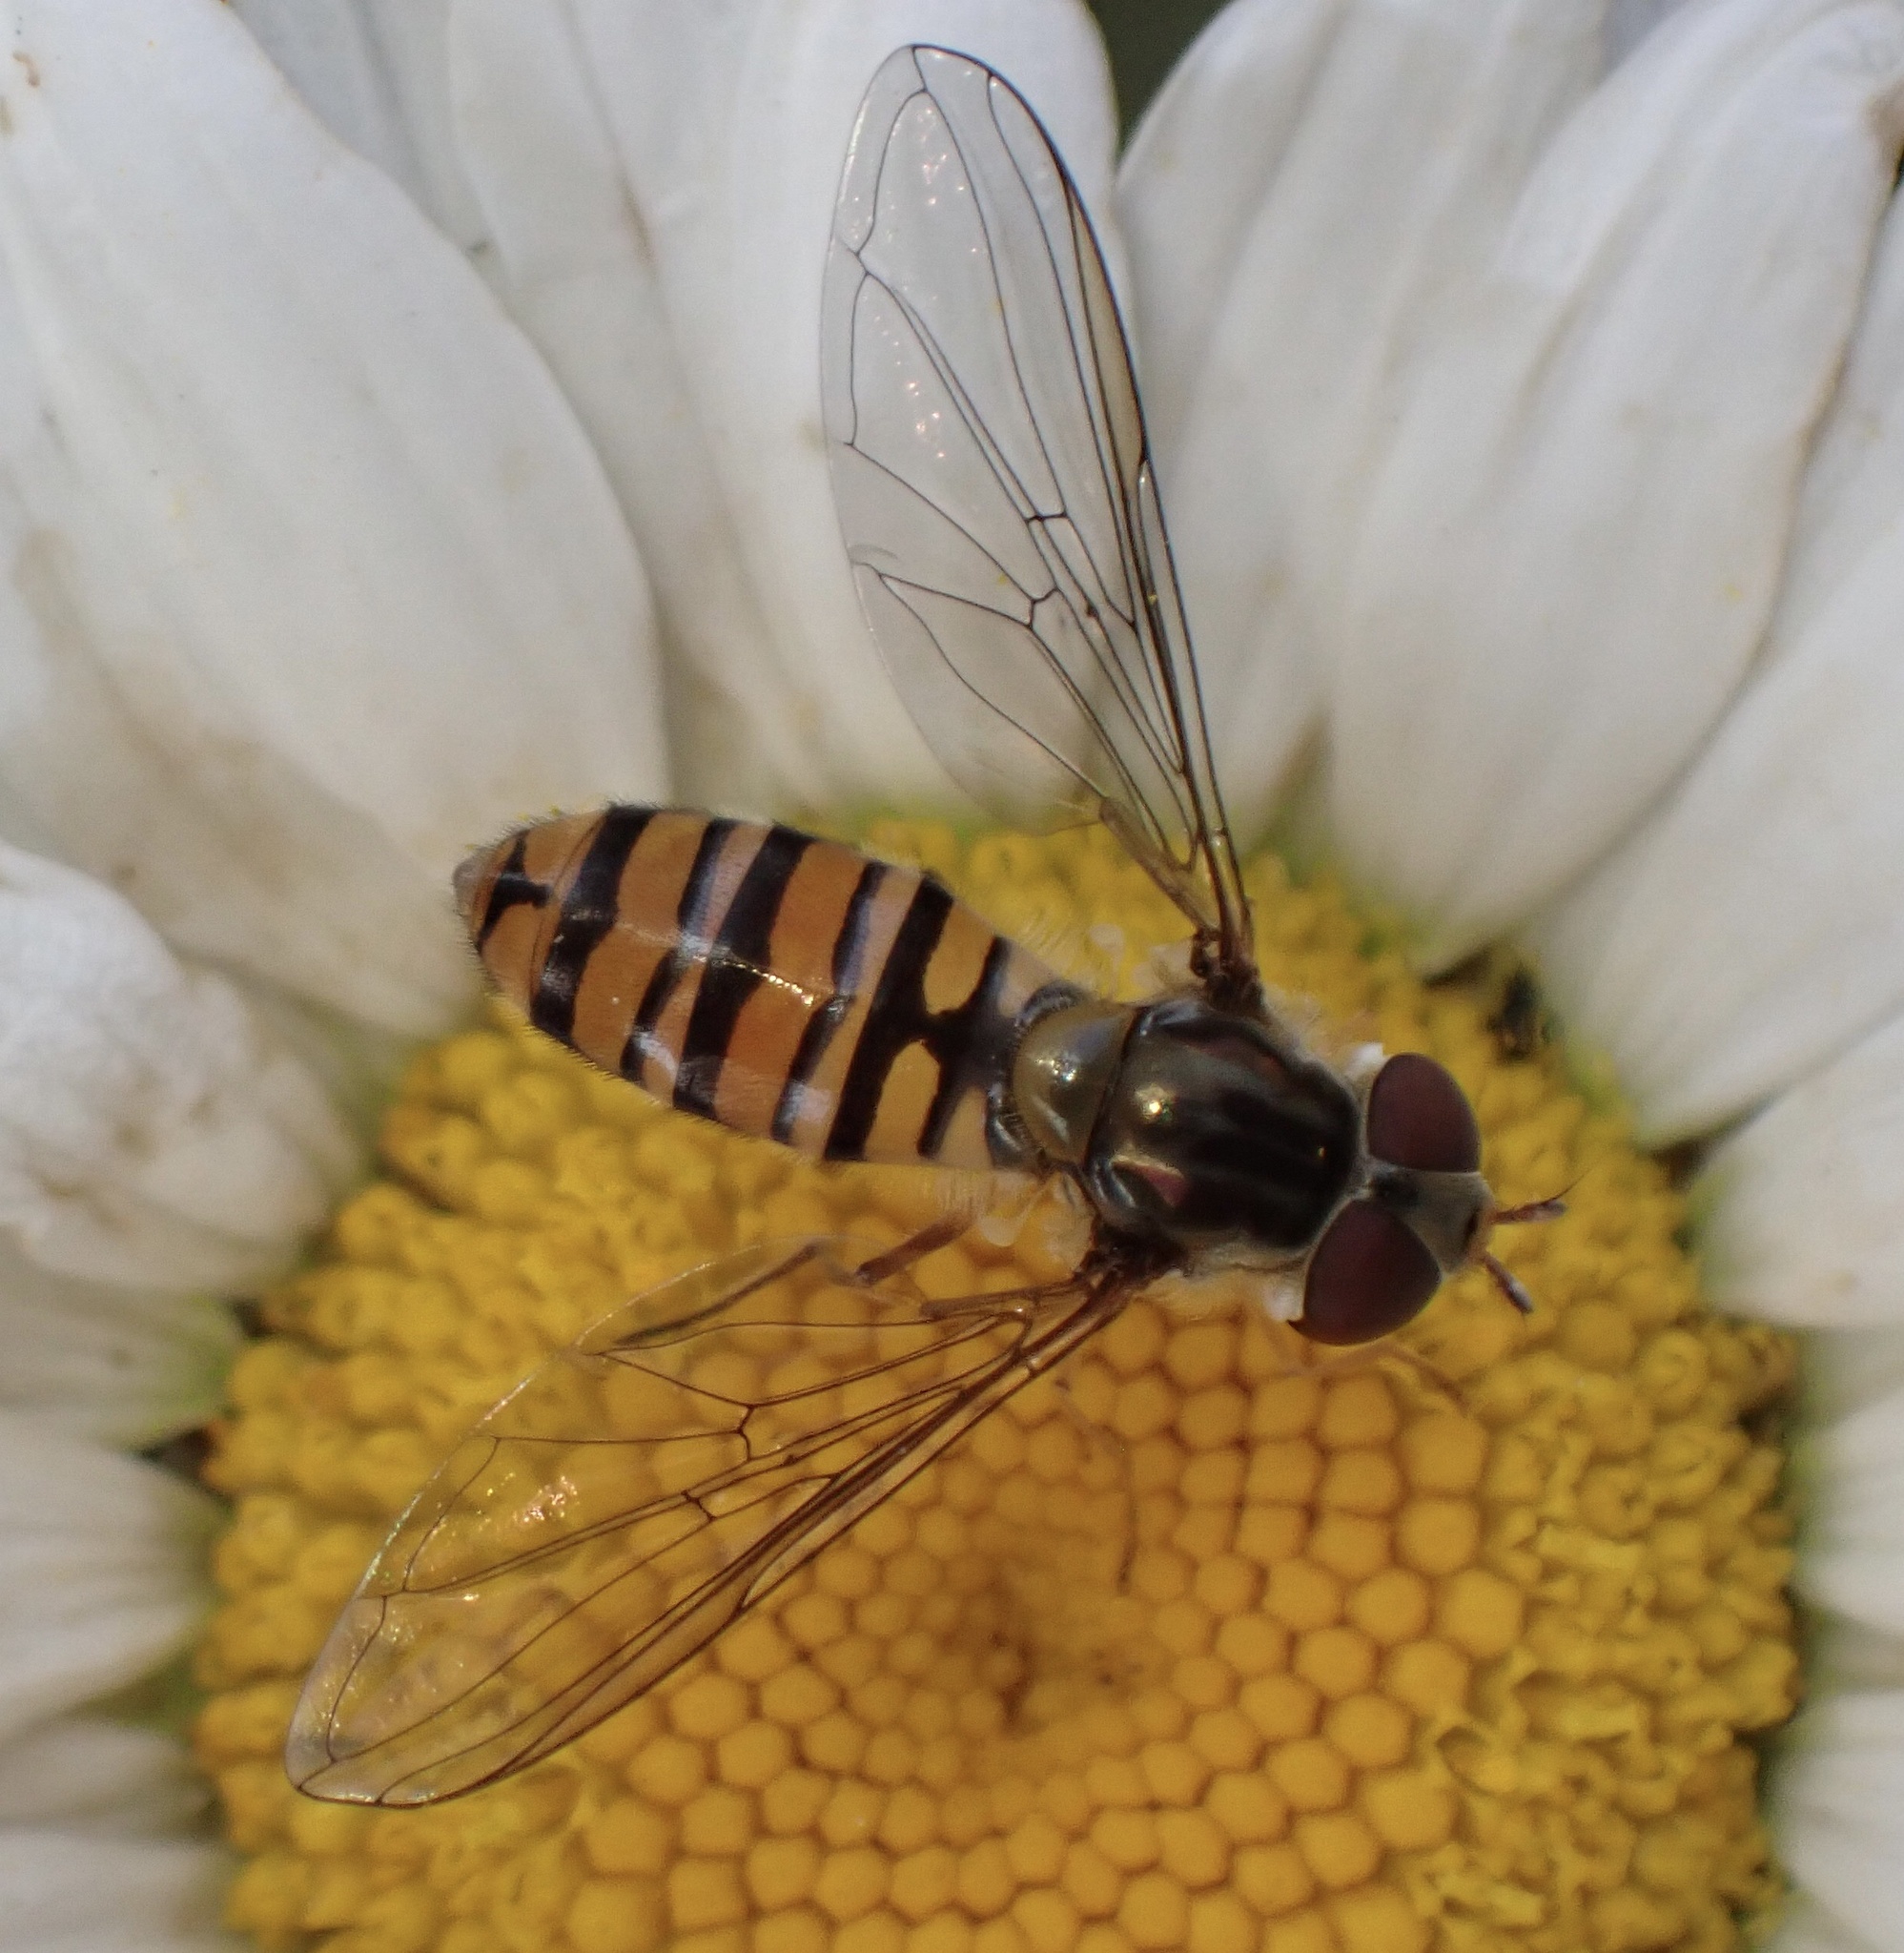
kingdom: Animalia
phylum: Arthropoda
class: Insecta
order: Diptera
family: Syrphidae
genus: Episyrphus
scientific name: Episyrphus balteatus
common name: Marmalade hoverfly
